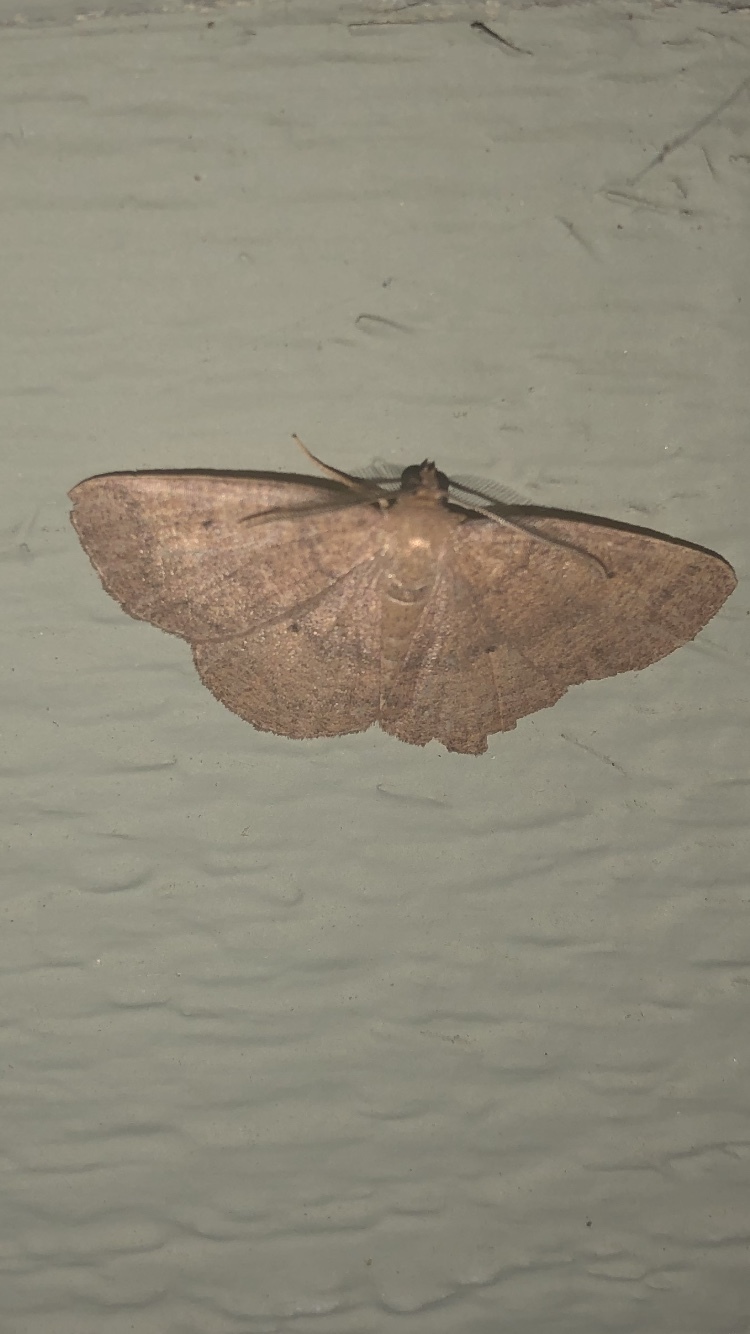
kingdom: Animalia
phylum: Arthropoda
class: Insecta
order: Lepidoptera
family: Geometridae
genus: Ilexia
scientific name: Ilexia intractata
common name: Black-dotted ruddy moth
